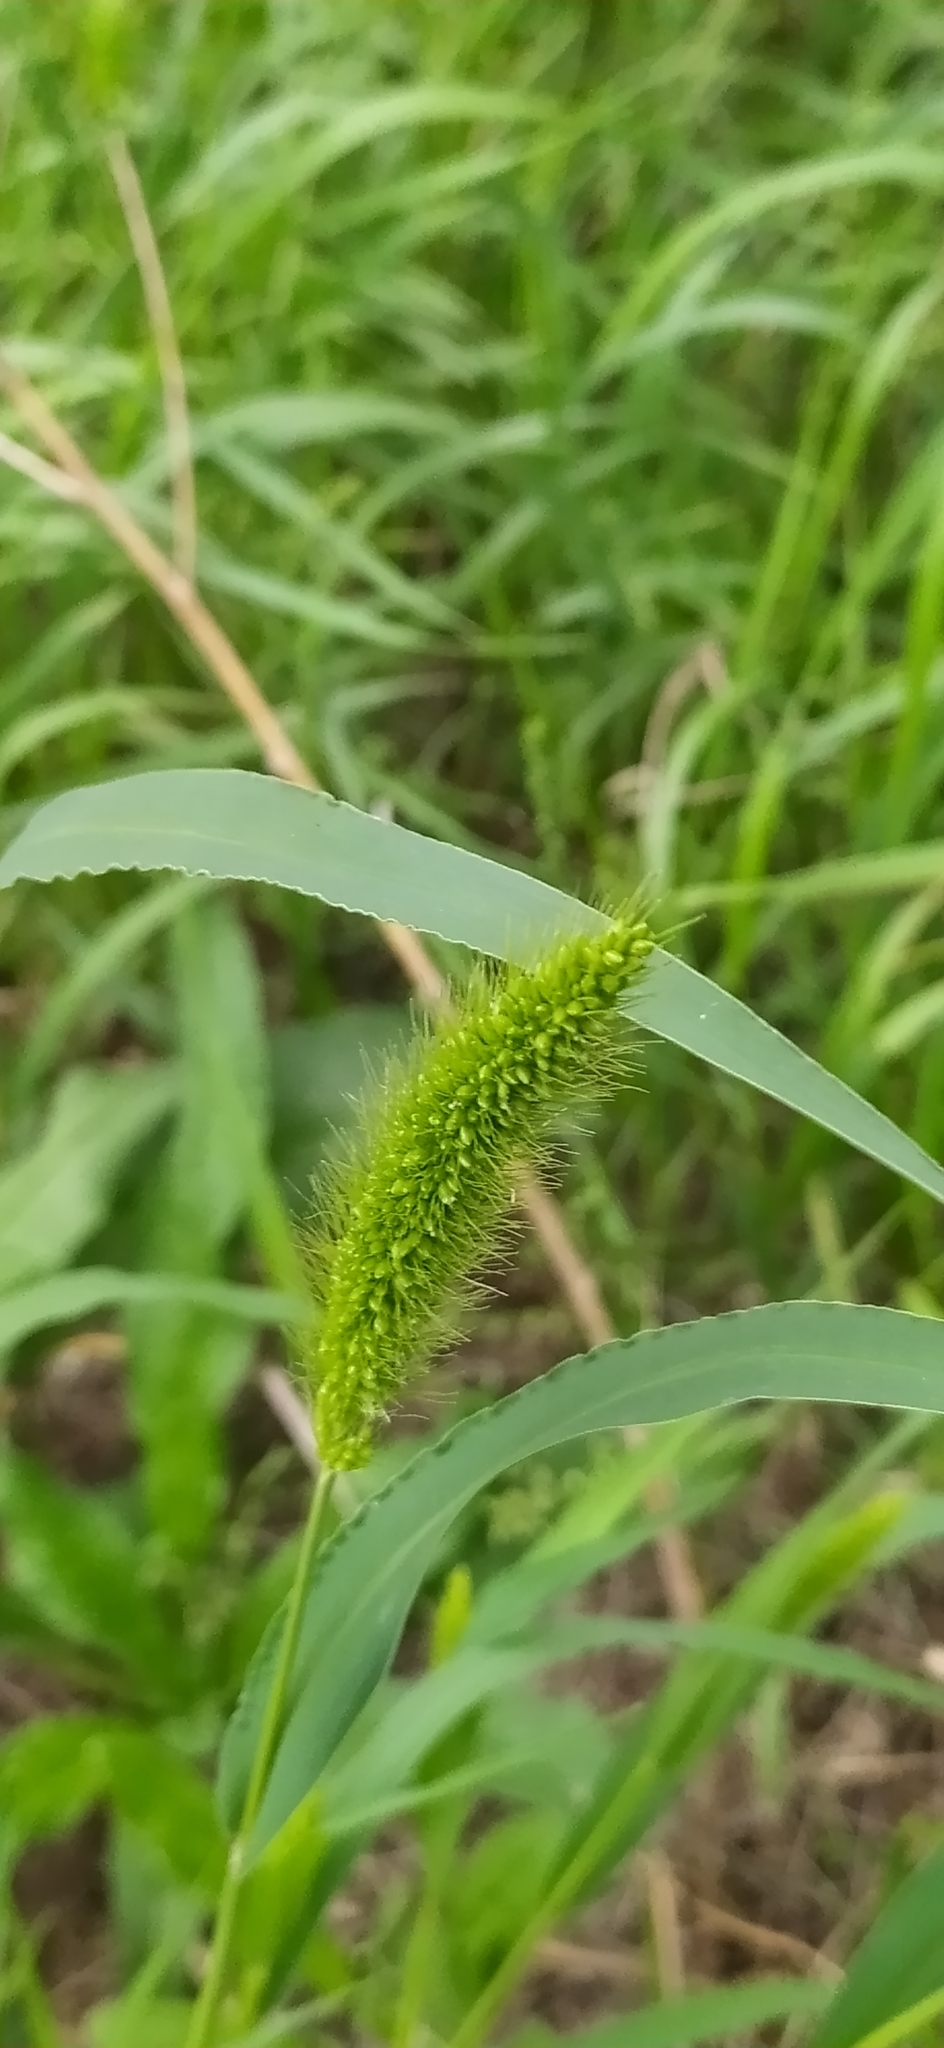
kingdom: Plantae
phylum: Tracheophyta
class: Liliopsida
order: Poales
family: Poaceae
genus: Setaria
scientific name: Setaria viridis
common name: Green bristlegrass
